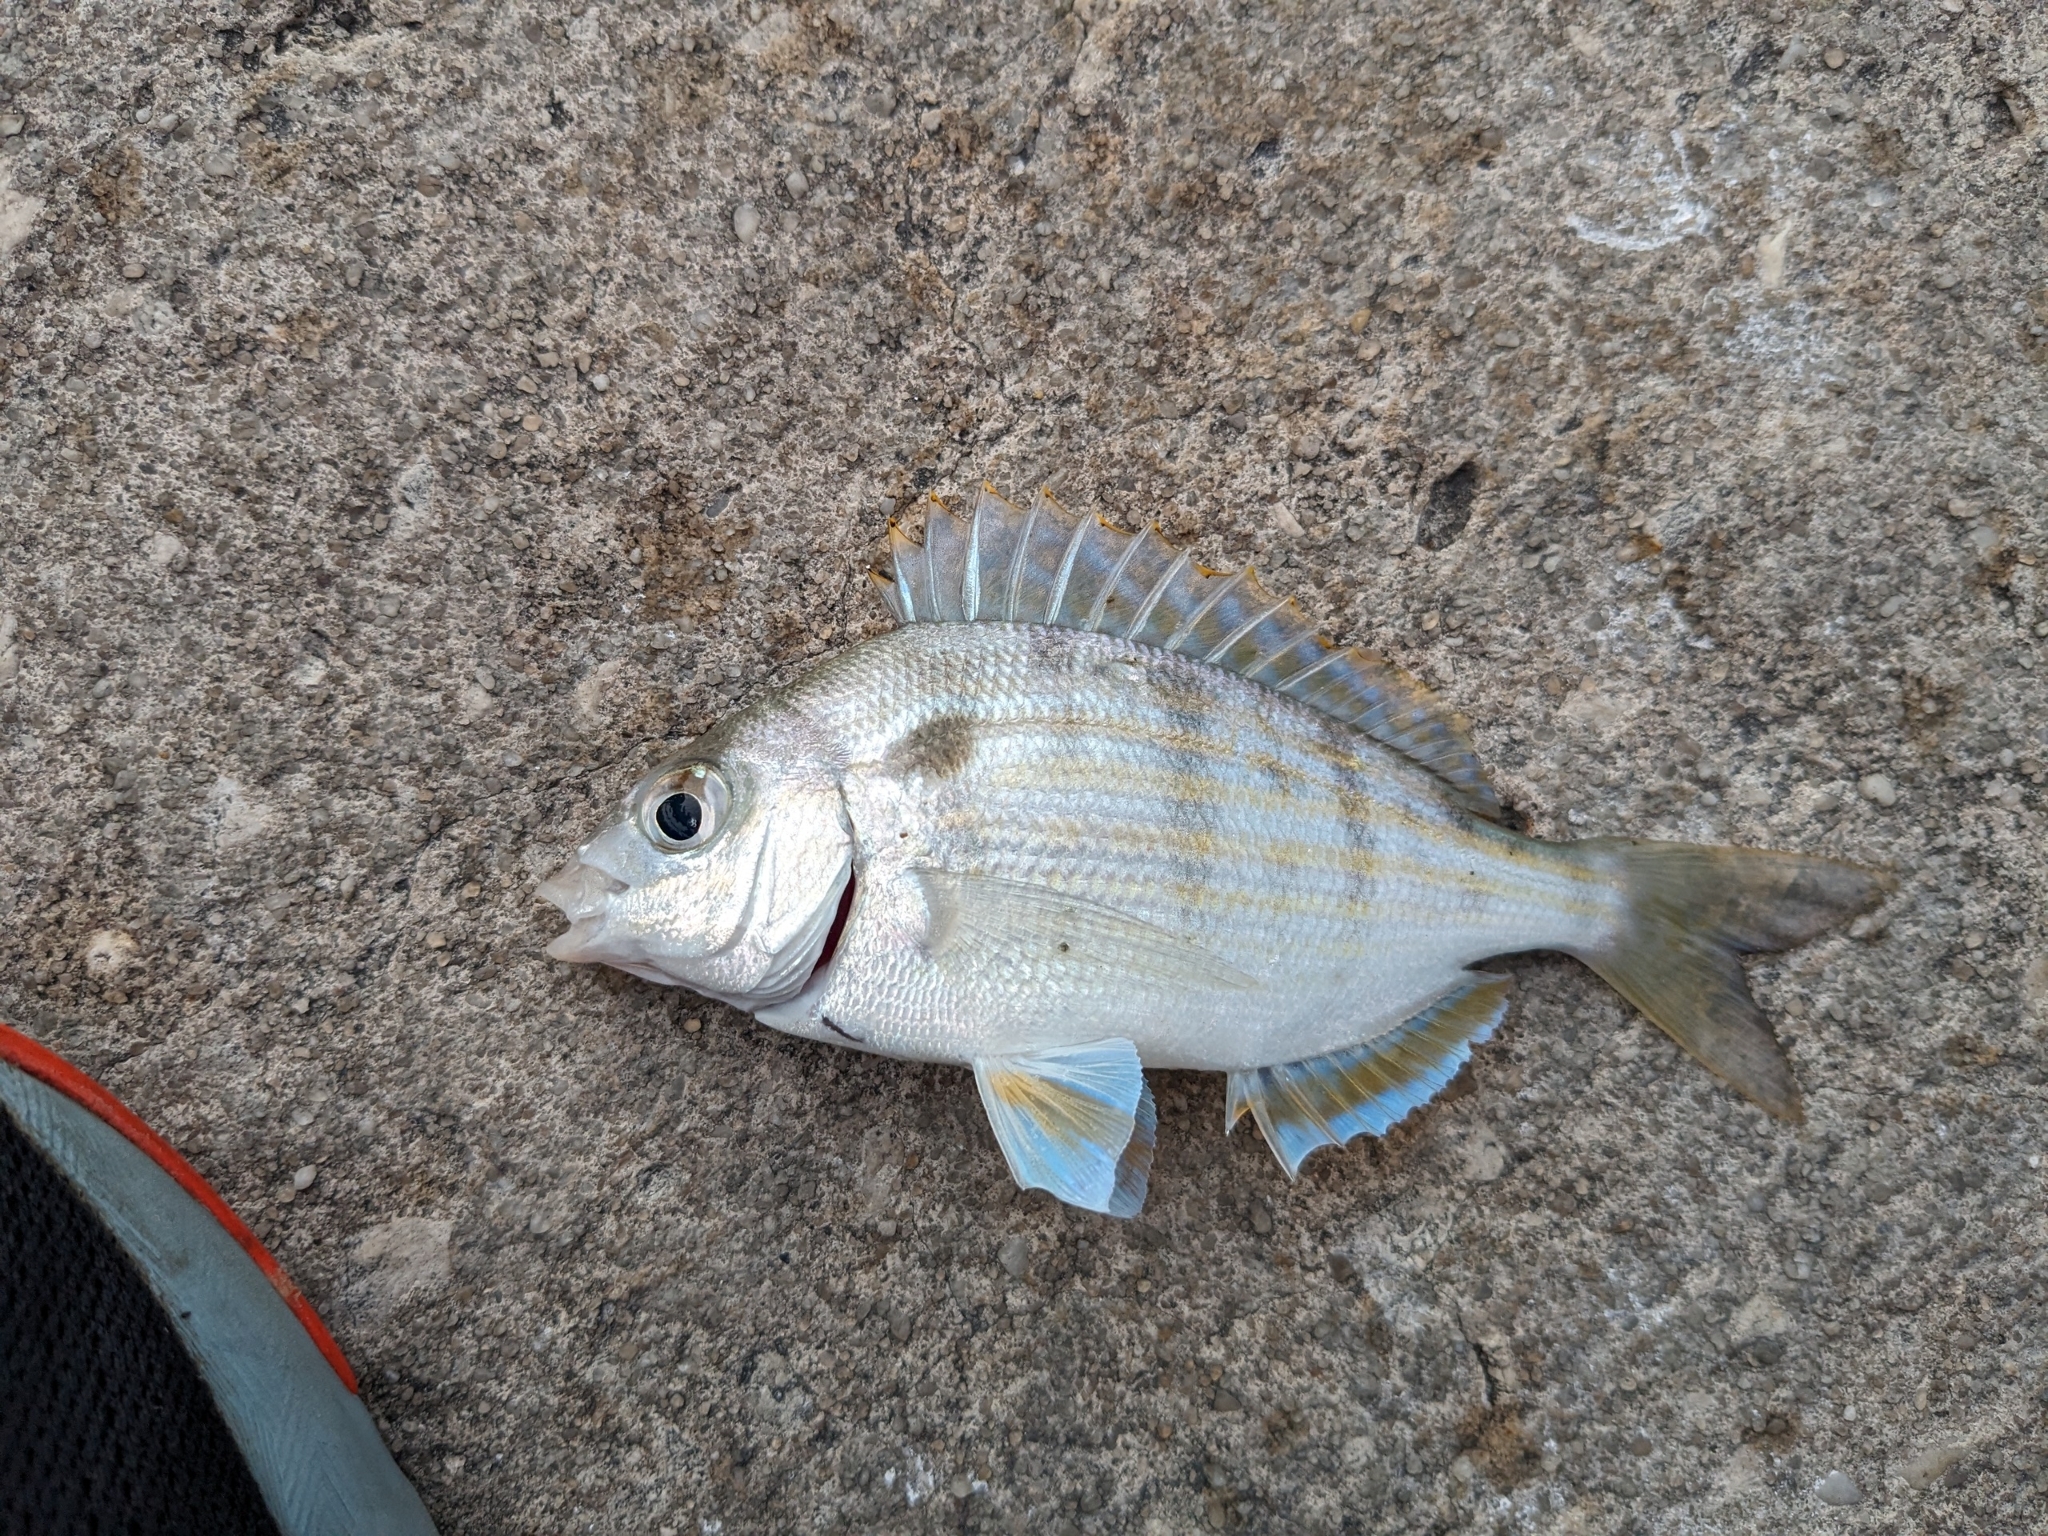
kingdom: Animalia
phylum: Chordata
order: Perciformes
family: Sparidae
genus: Lagodon
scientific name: Lagodon rhomboides
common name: Pinfish
